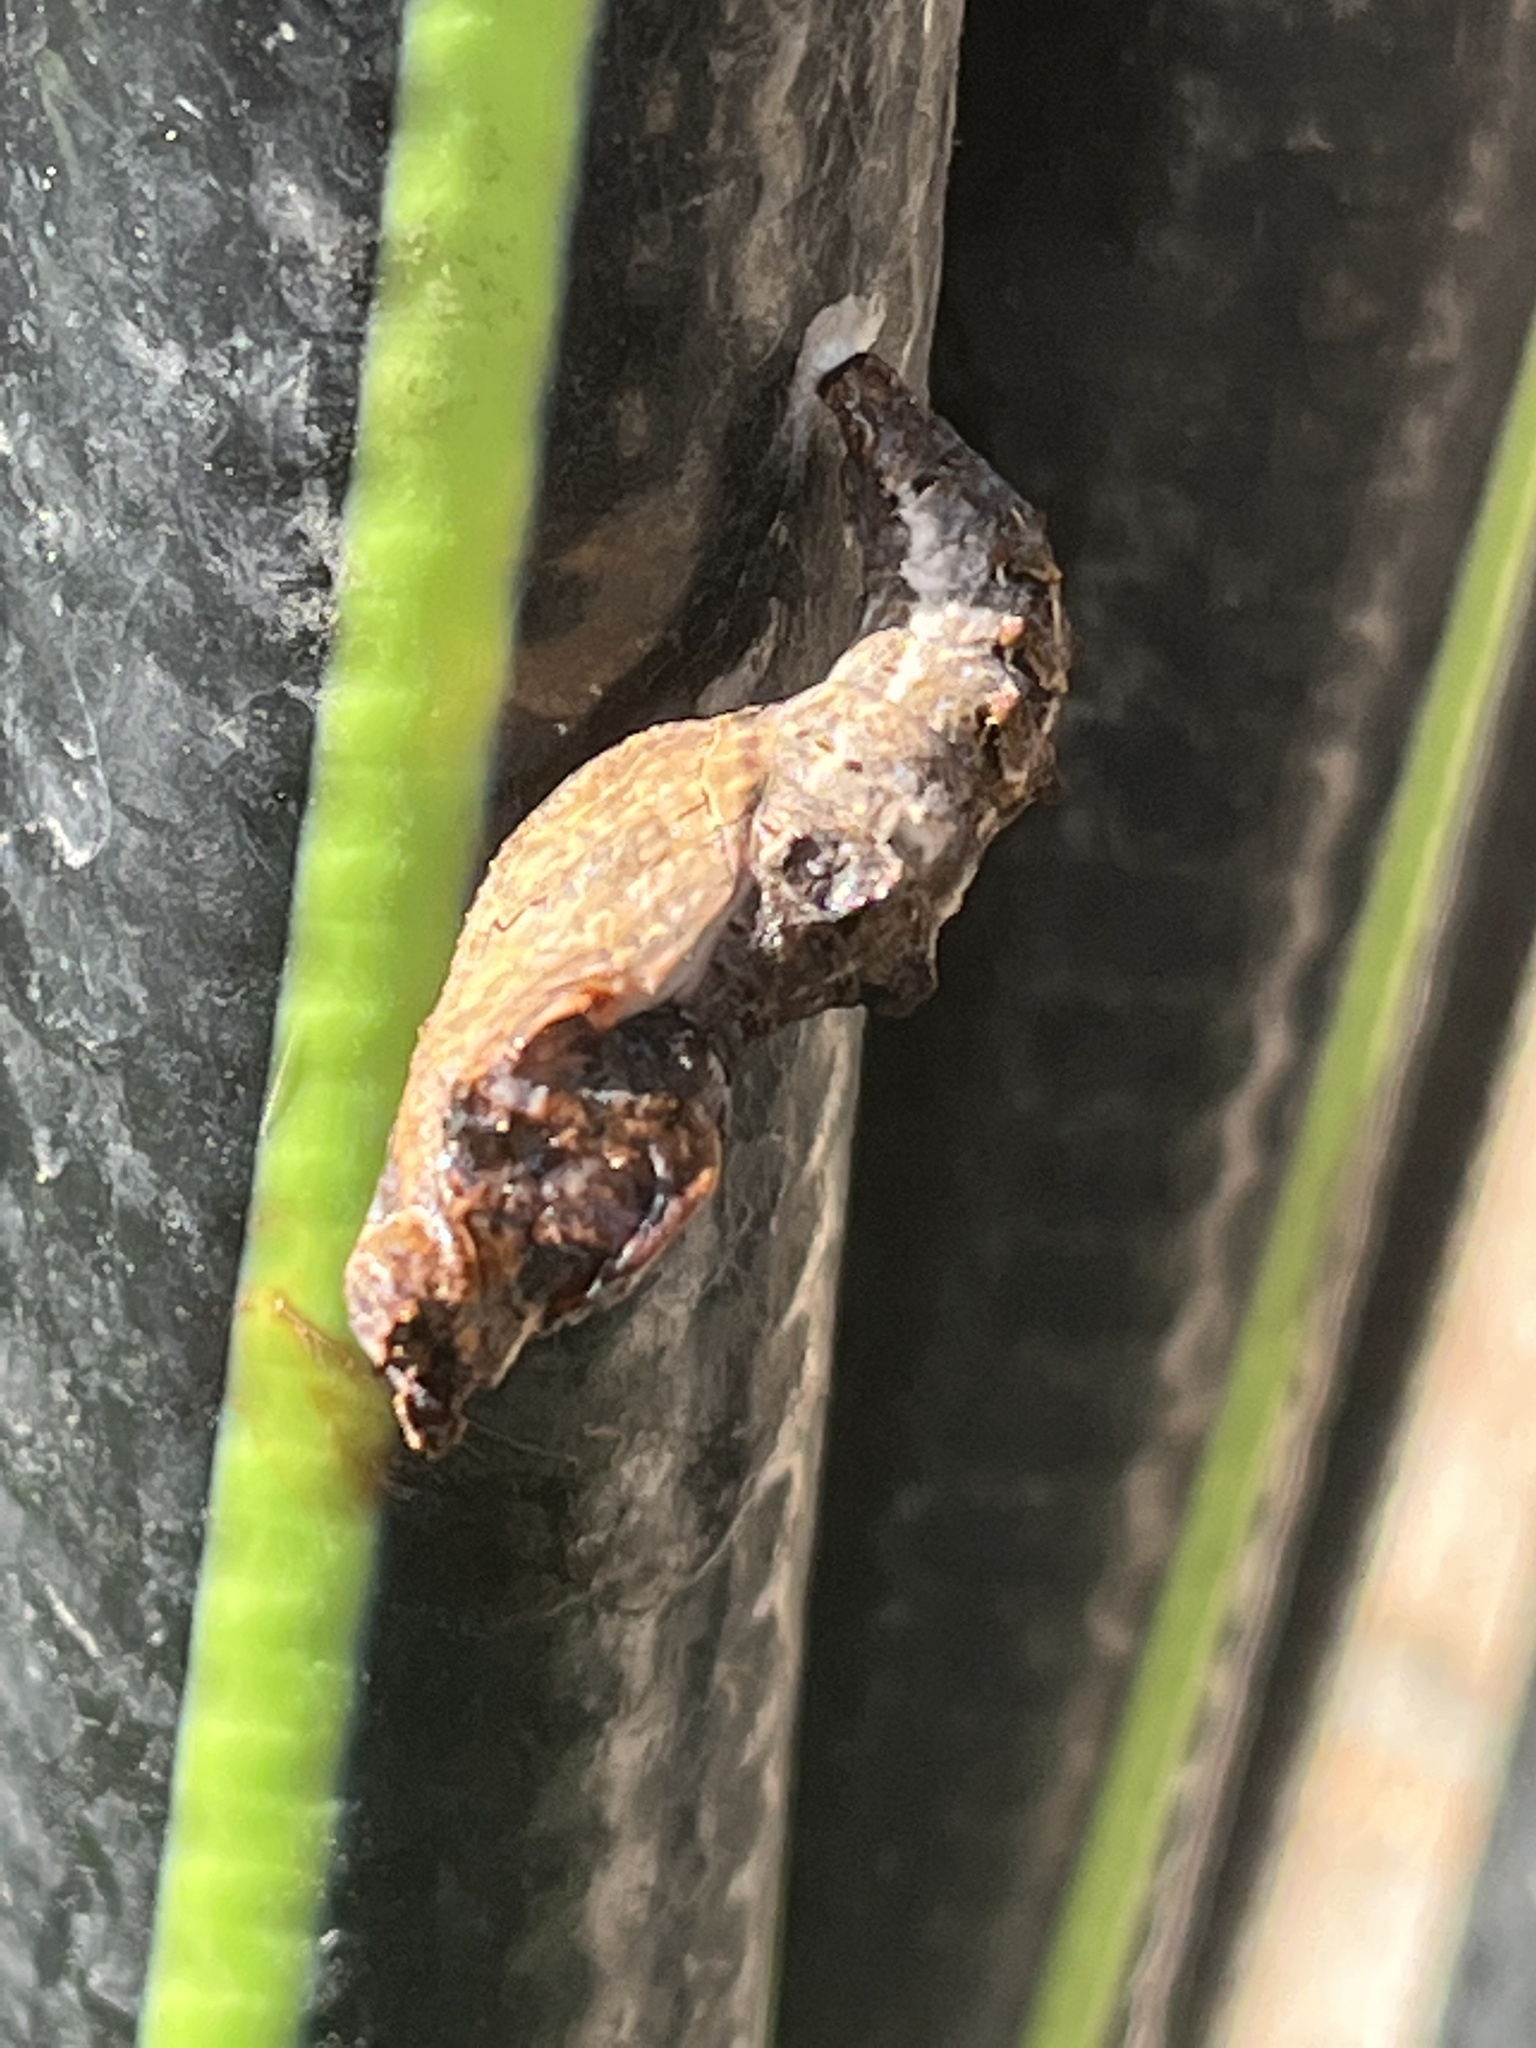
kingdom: Animalia
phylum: Arthropoda
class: Insecta
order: Lepidoptera
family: Nymphalidae
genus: Dione
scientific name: Dione vanillae
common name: Gulf fritillary
